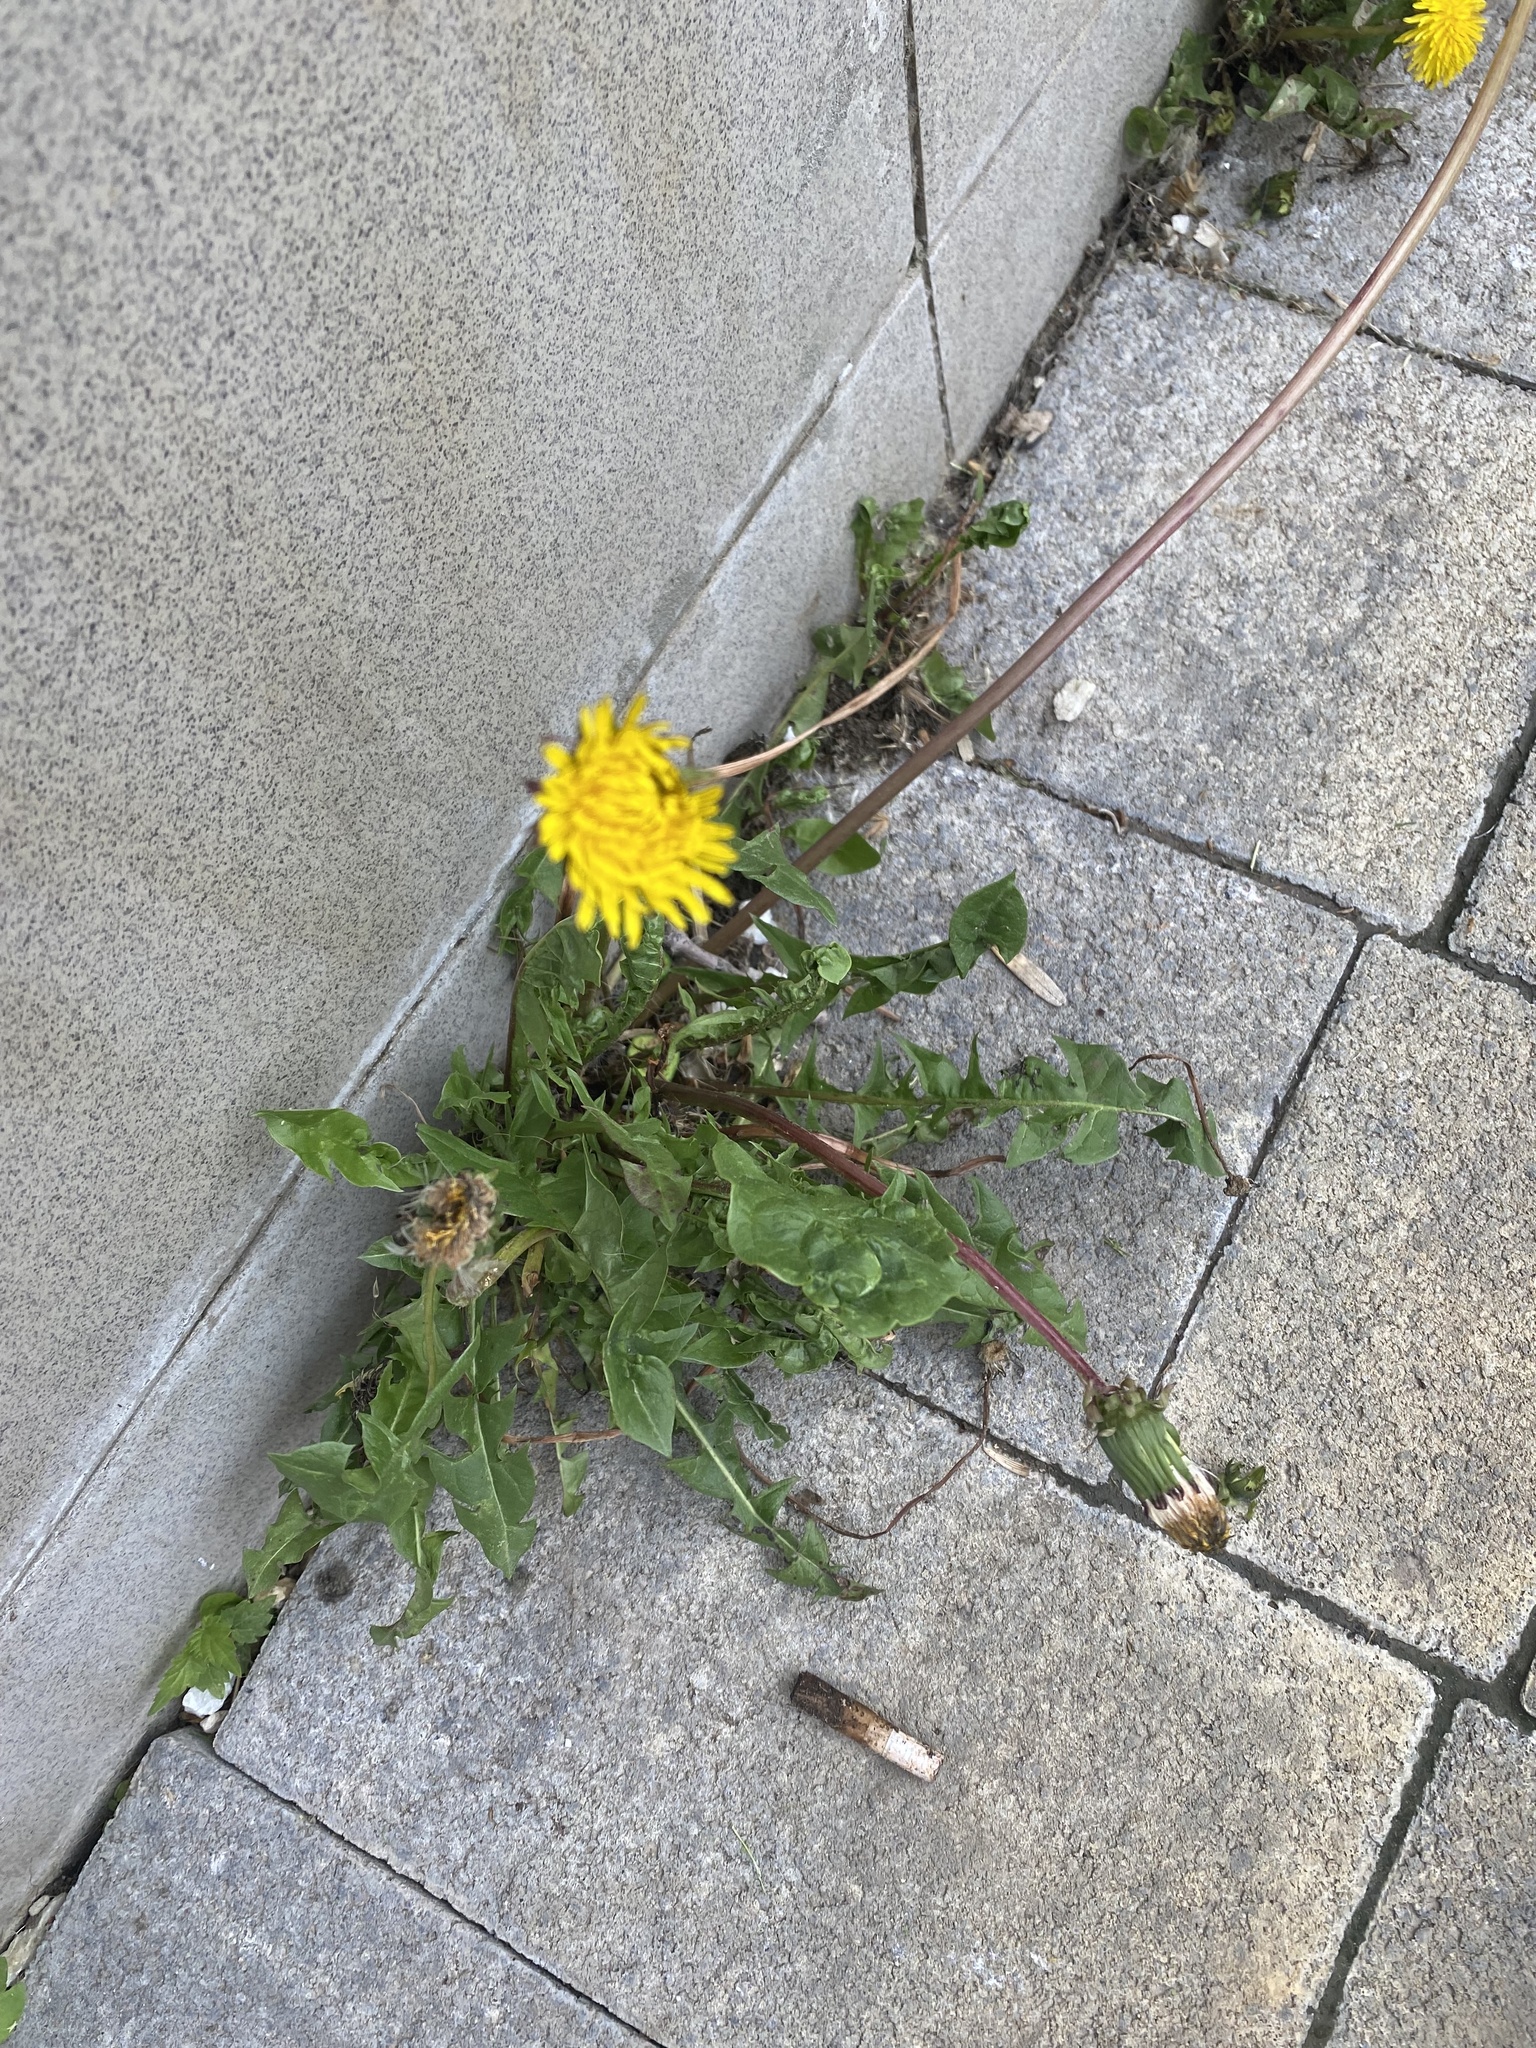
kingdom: Plantae
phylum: Tracheophyta
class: Magnoliopsida
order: Asterales
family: Asteraceae
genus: Taraxacum
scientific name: Taraxacum officinale
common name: Common dandelion
